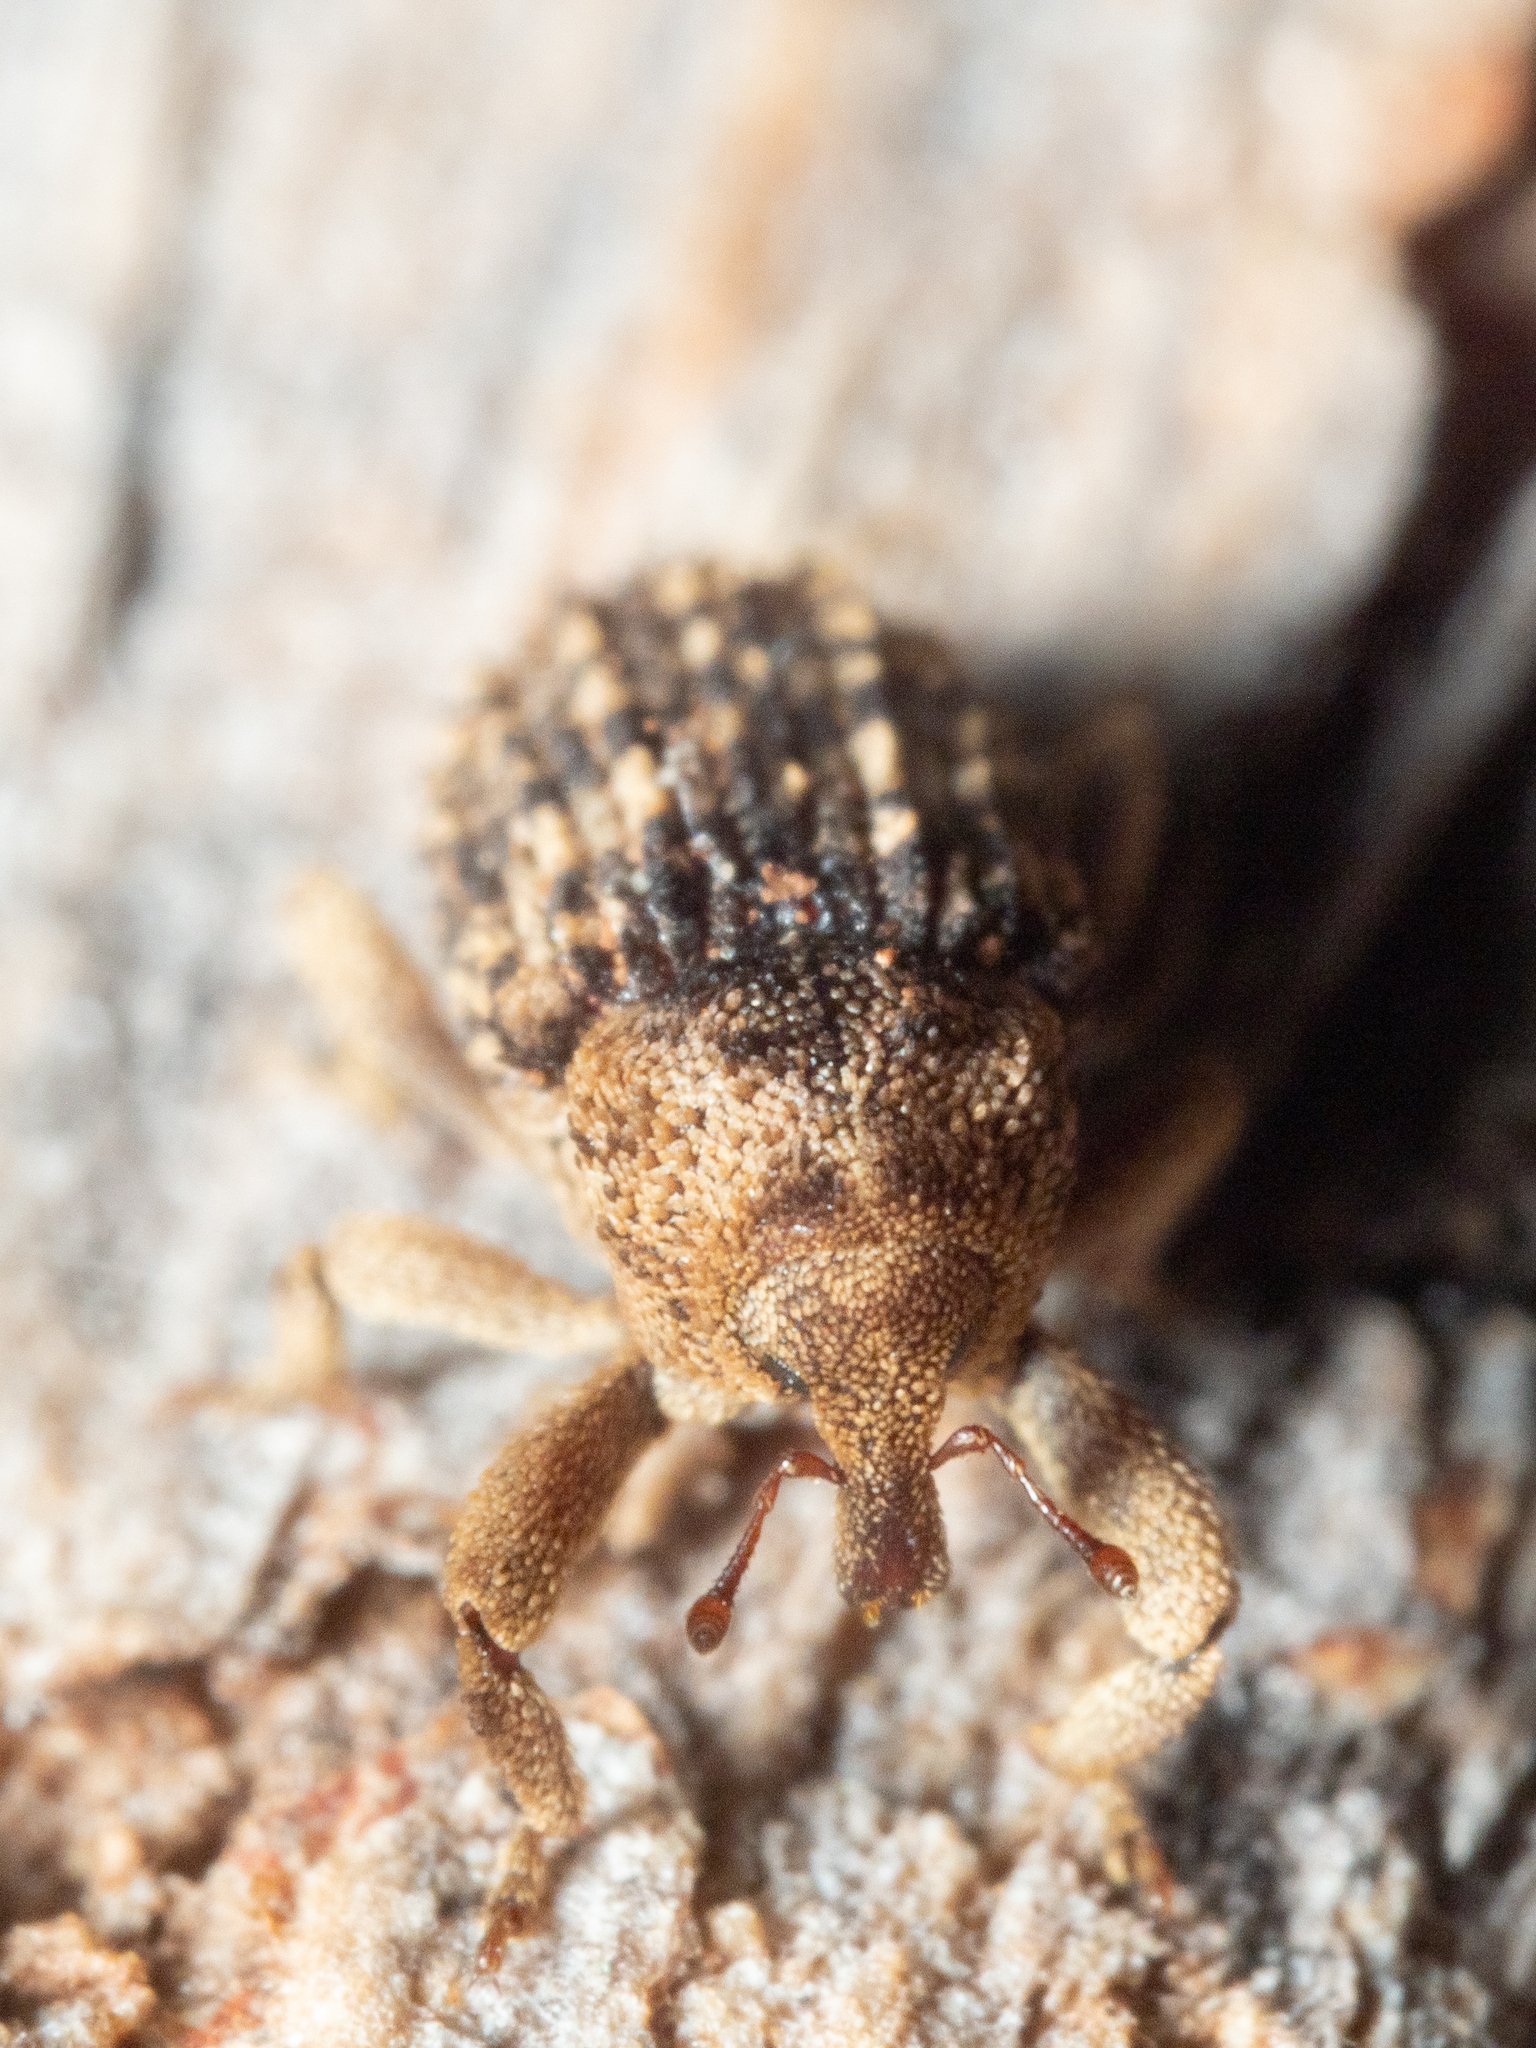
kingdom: Animalia
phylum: Arthropoda
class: Insecta
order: Coleoptera
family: Curculionidae
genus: Achopera
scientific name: Achopera alternata
